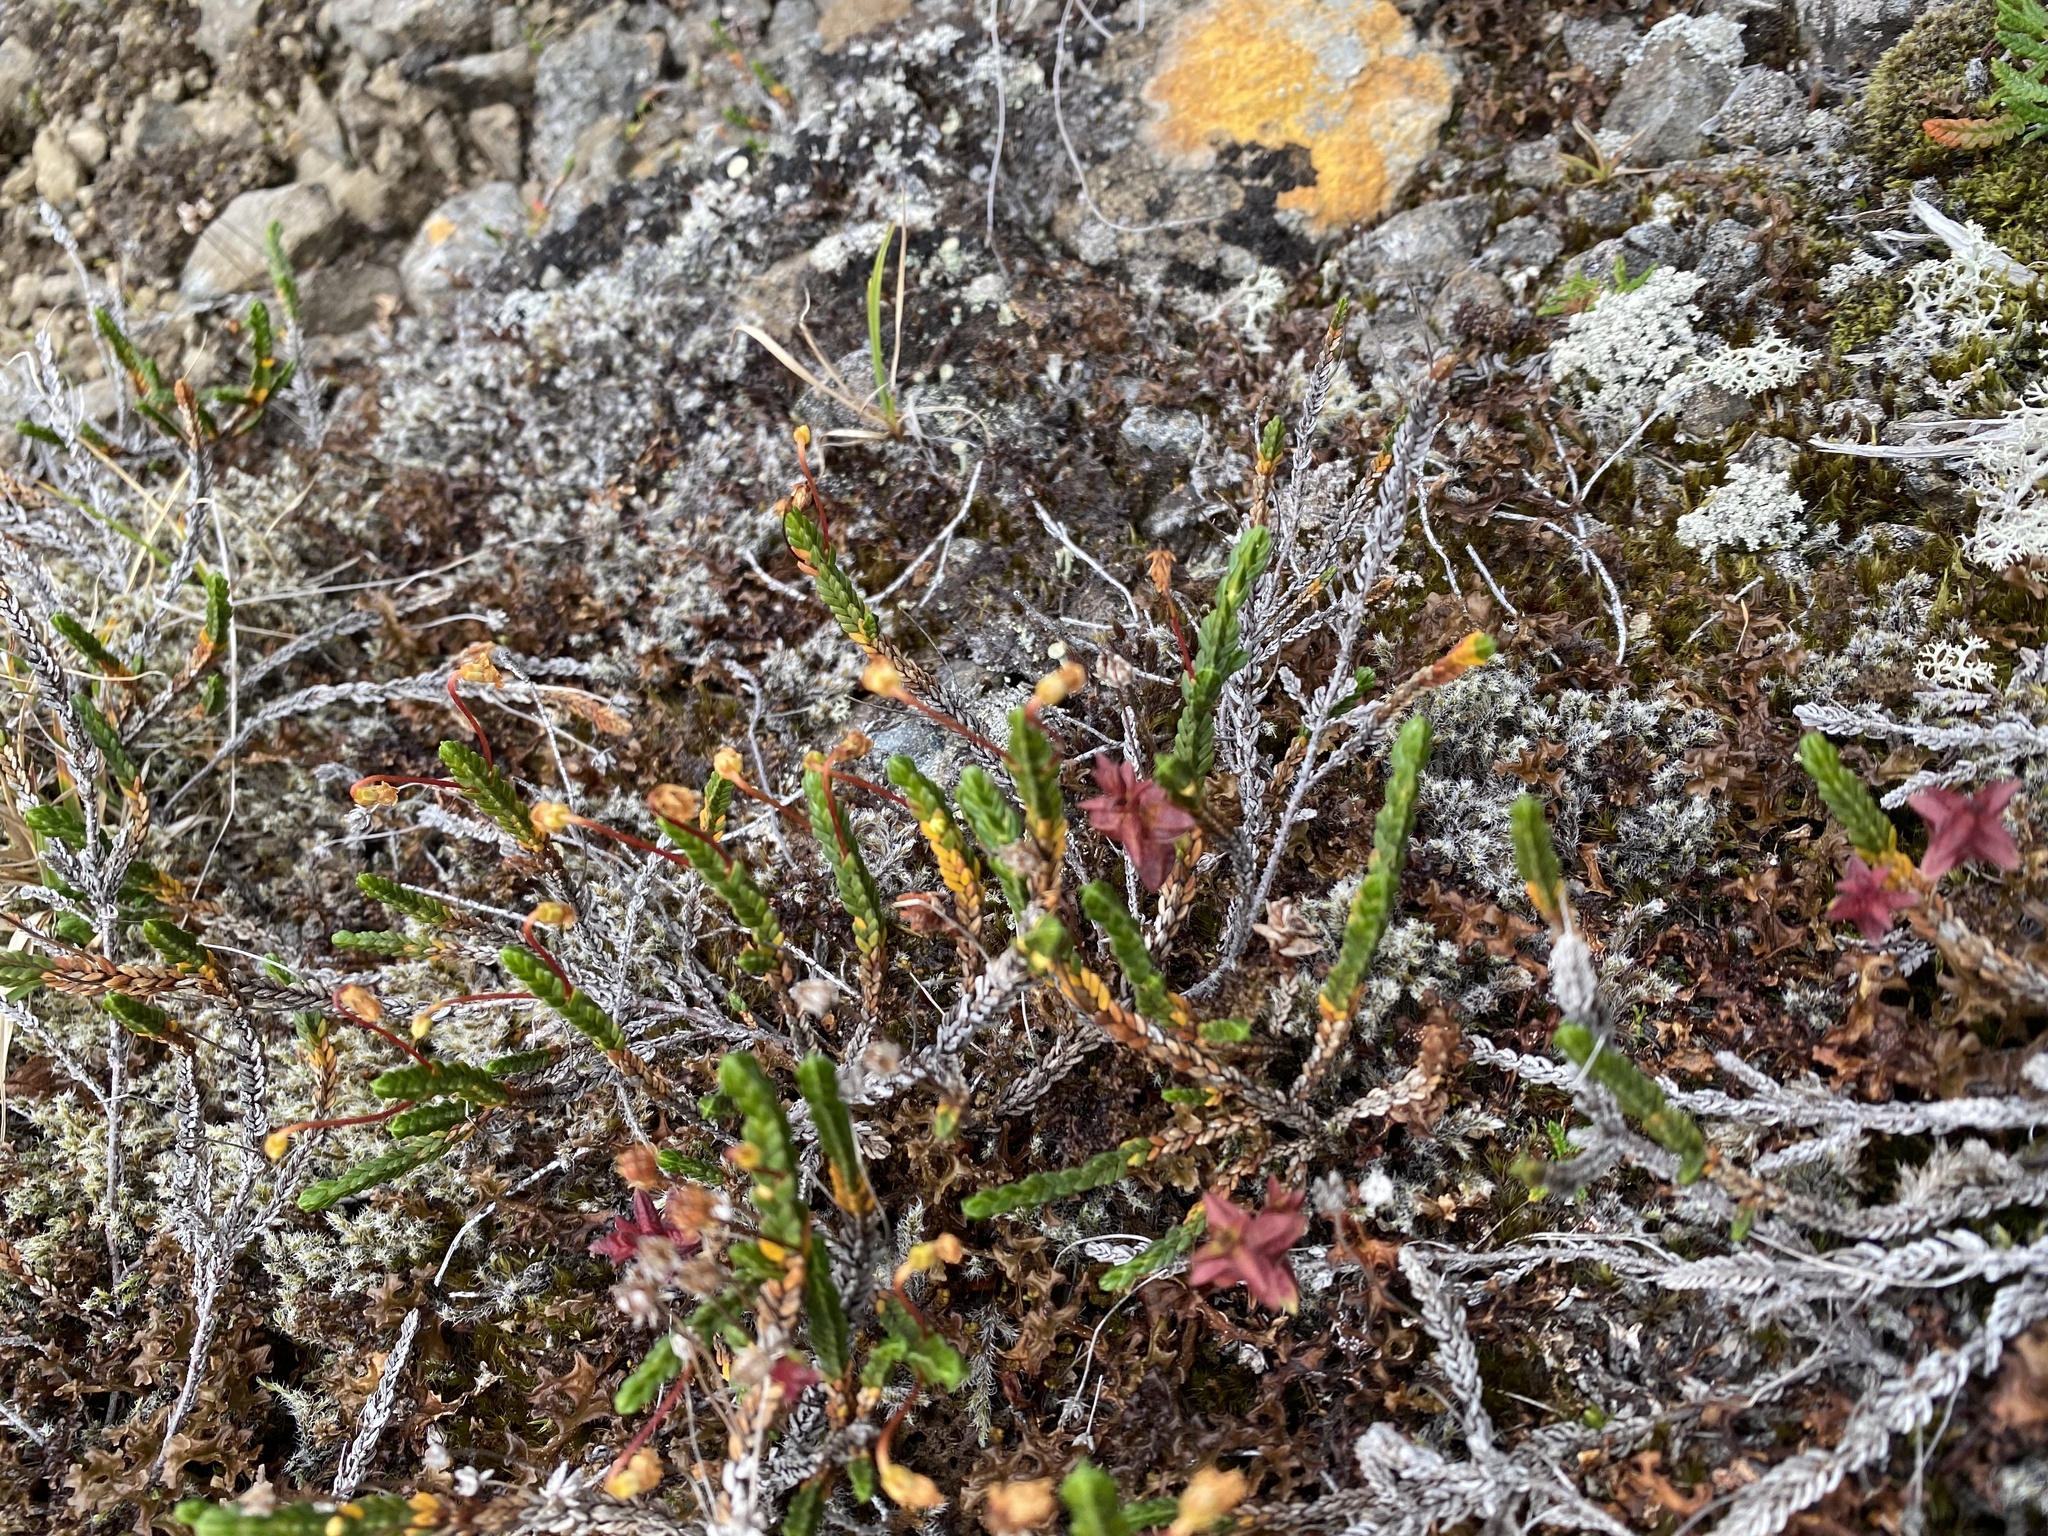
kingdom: Plantae
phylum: Tracheophyta
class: Magnoliopsida
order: Ericales
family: Ericaceae
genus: Cassiope
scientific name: Cassiope tetragona
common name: Arctic bell heather
